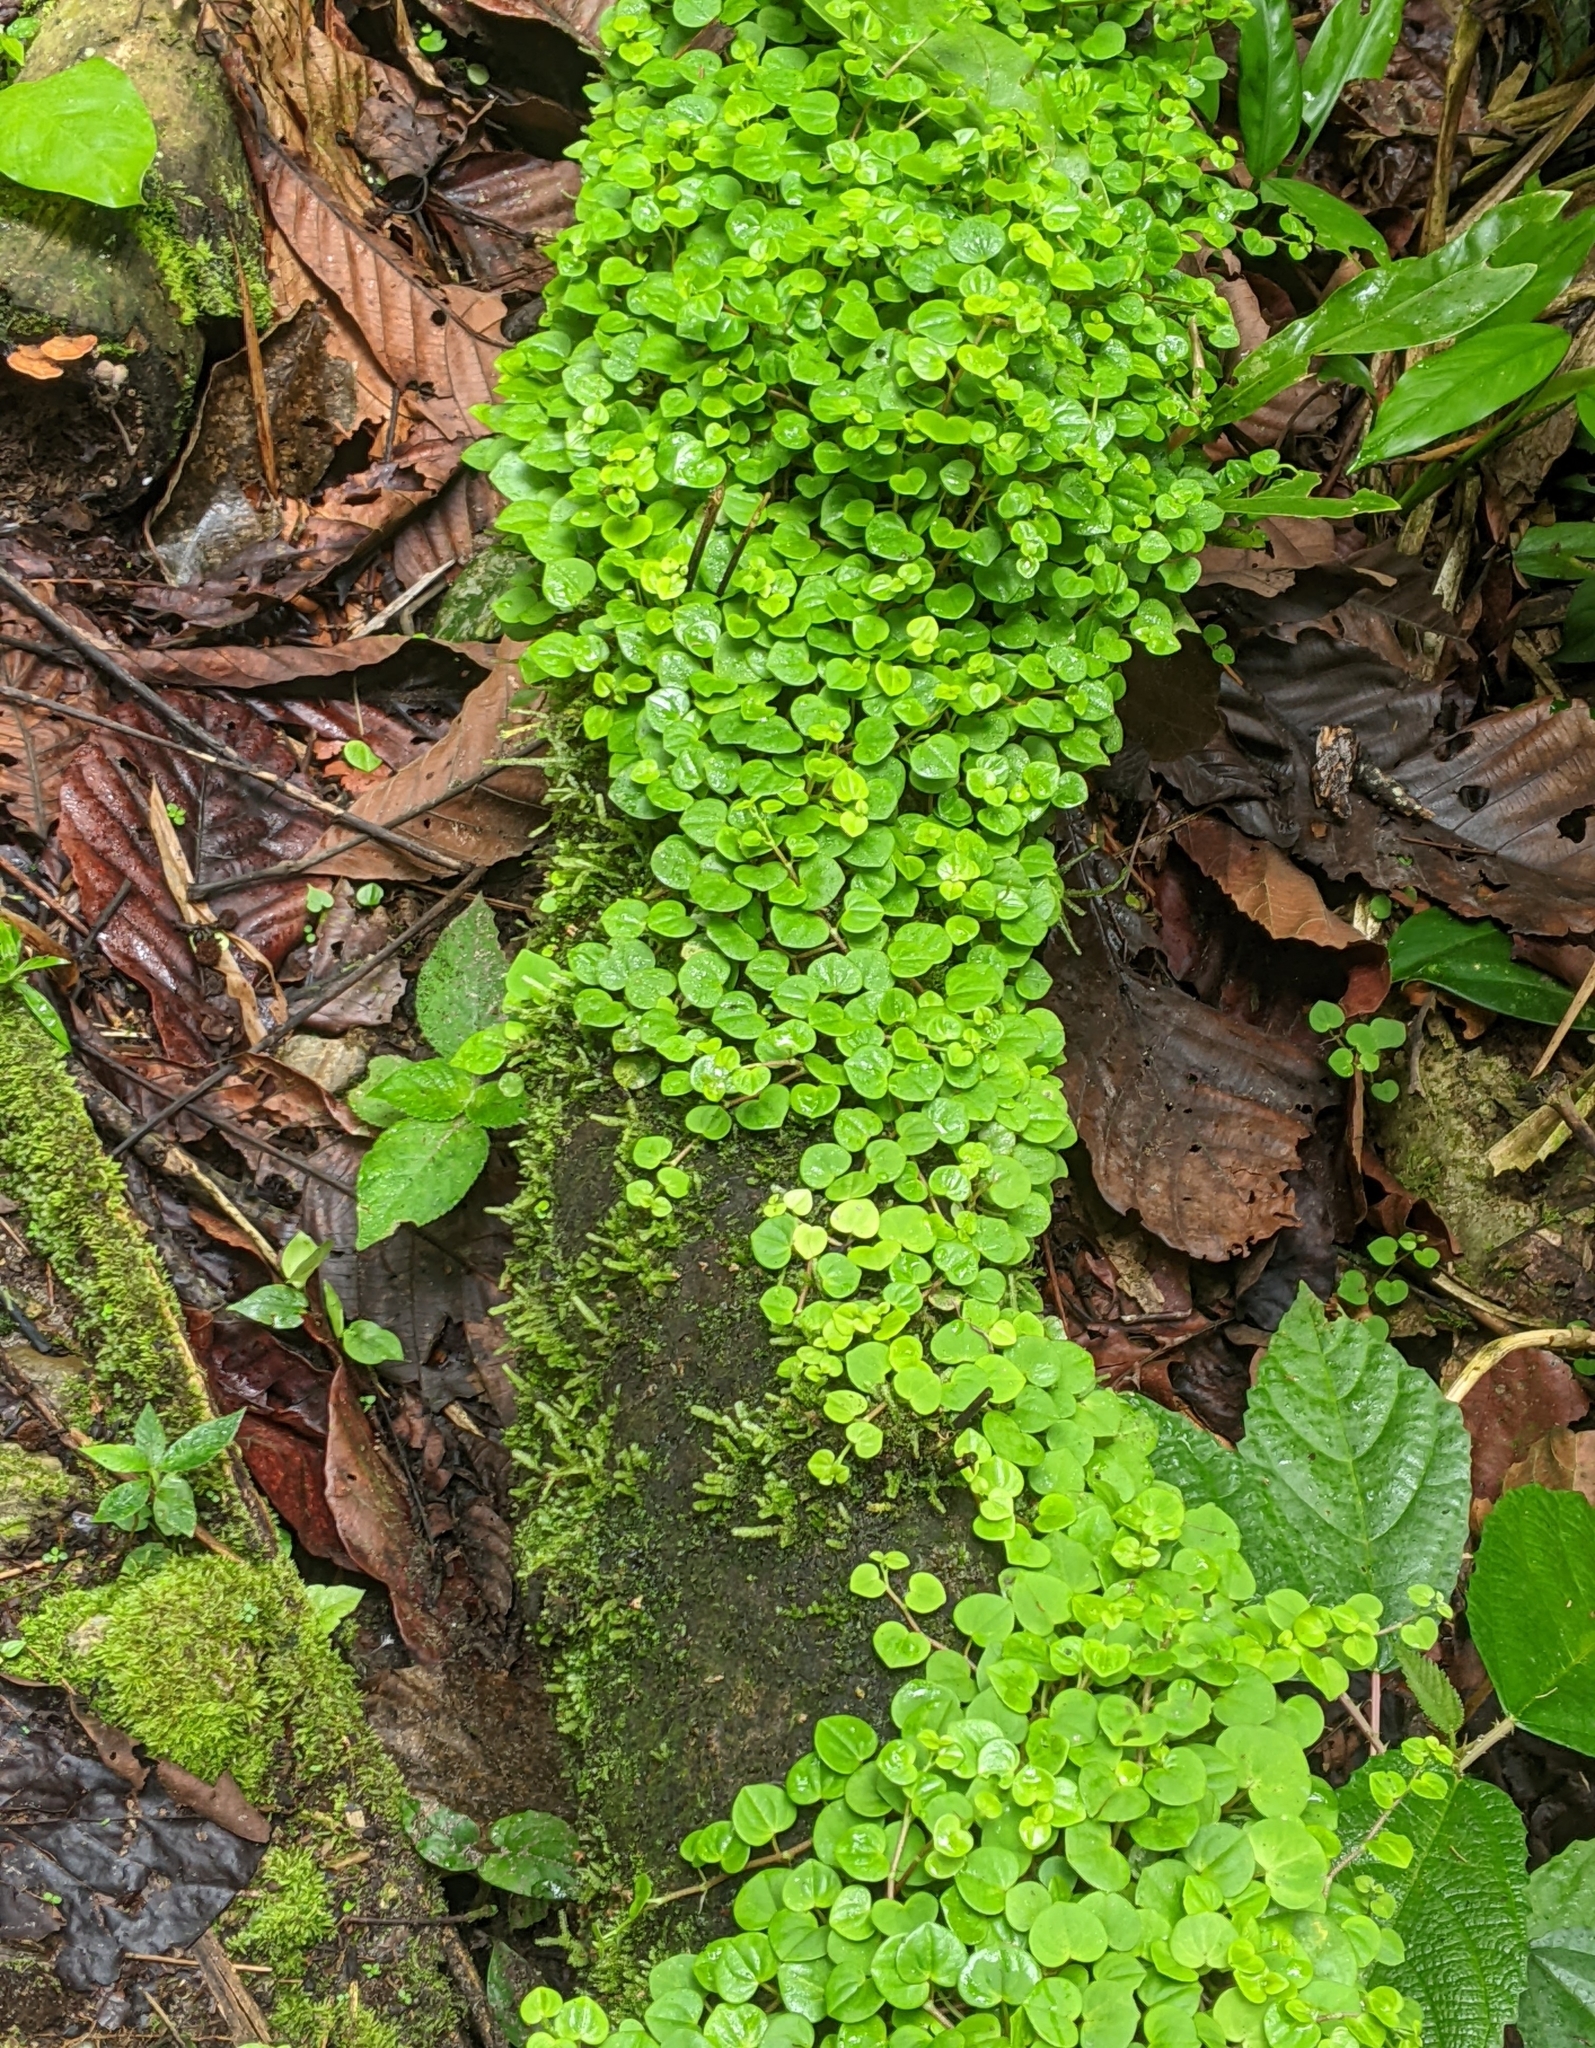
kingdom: Plantae
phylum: Tracheophyta
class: Magnoliopsida
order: Piperales
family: Piperaceae
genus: Peperomia
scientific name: Peperomia serpens
